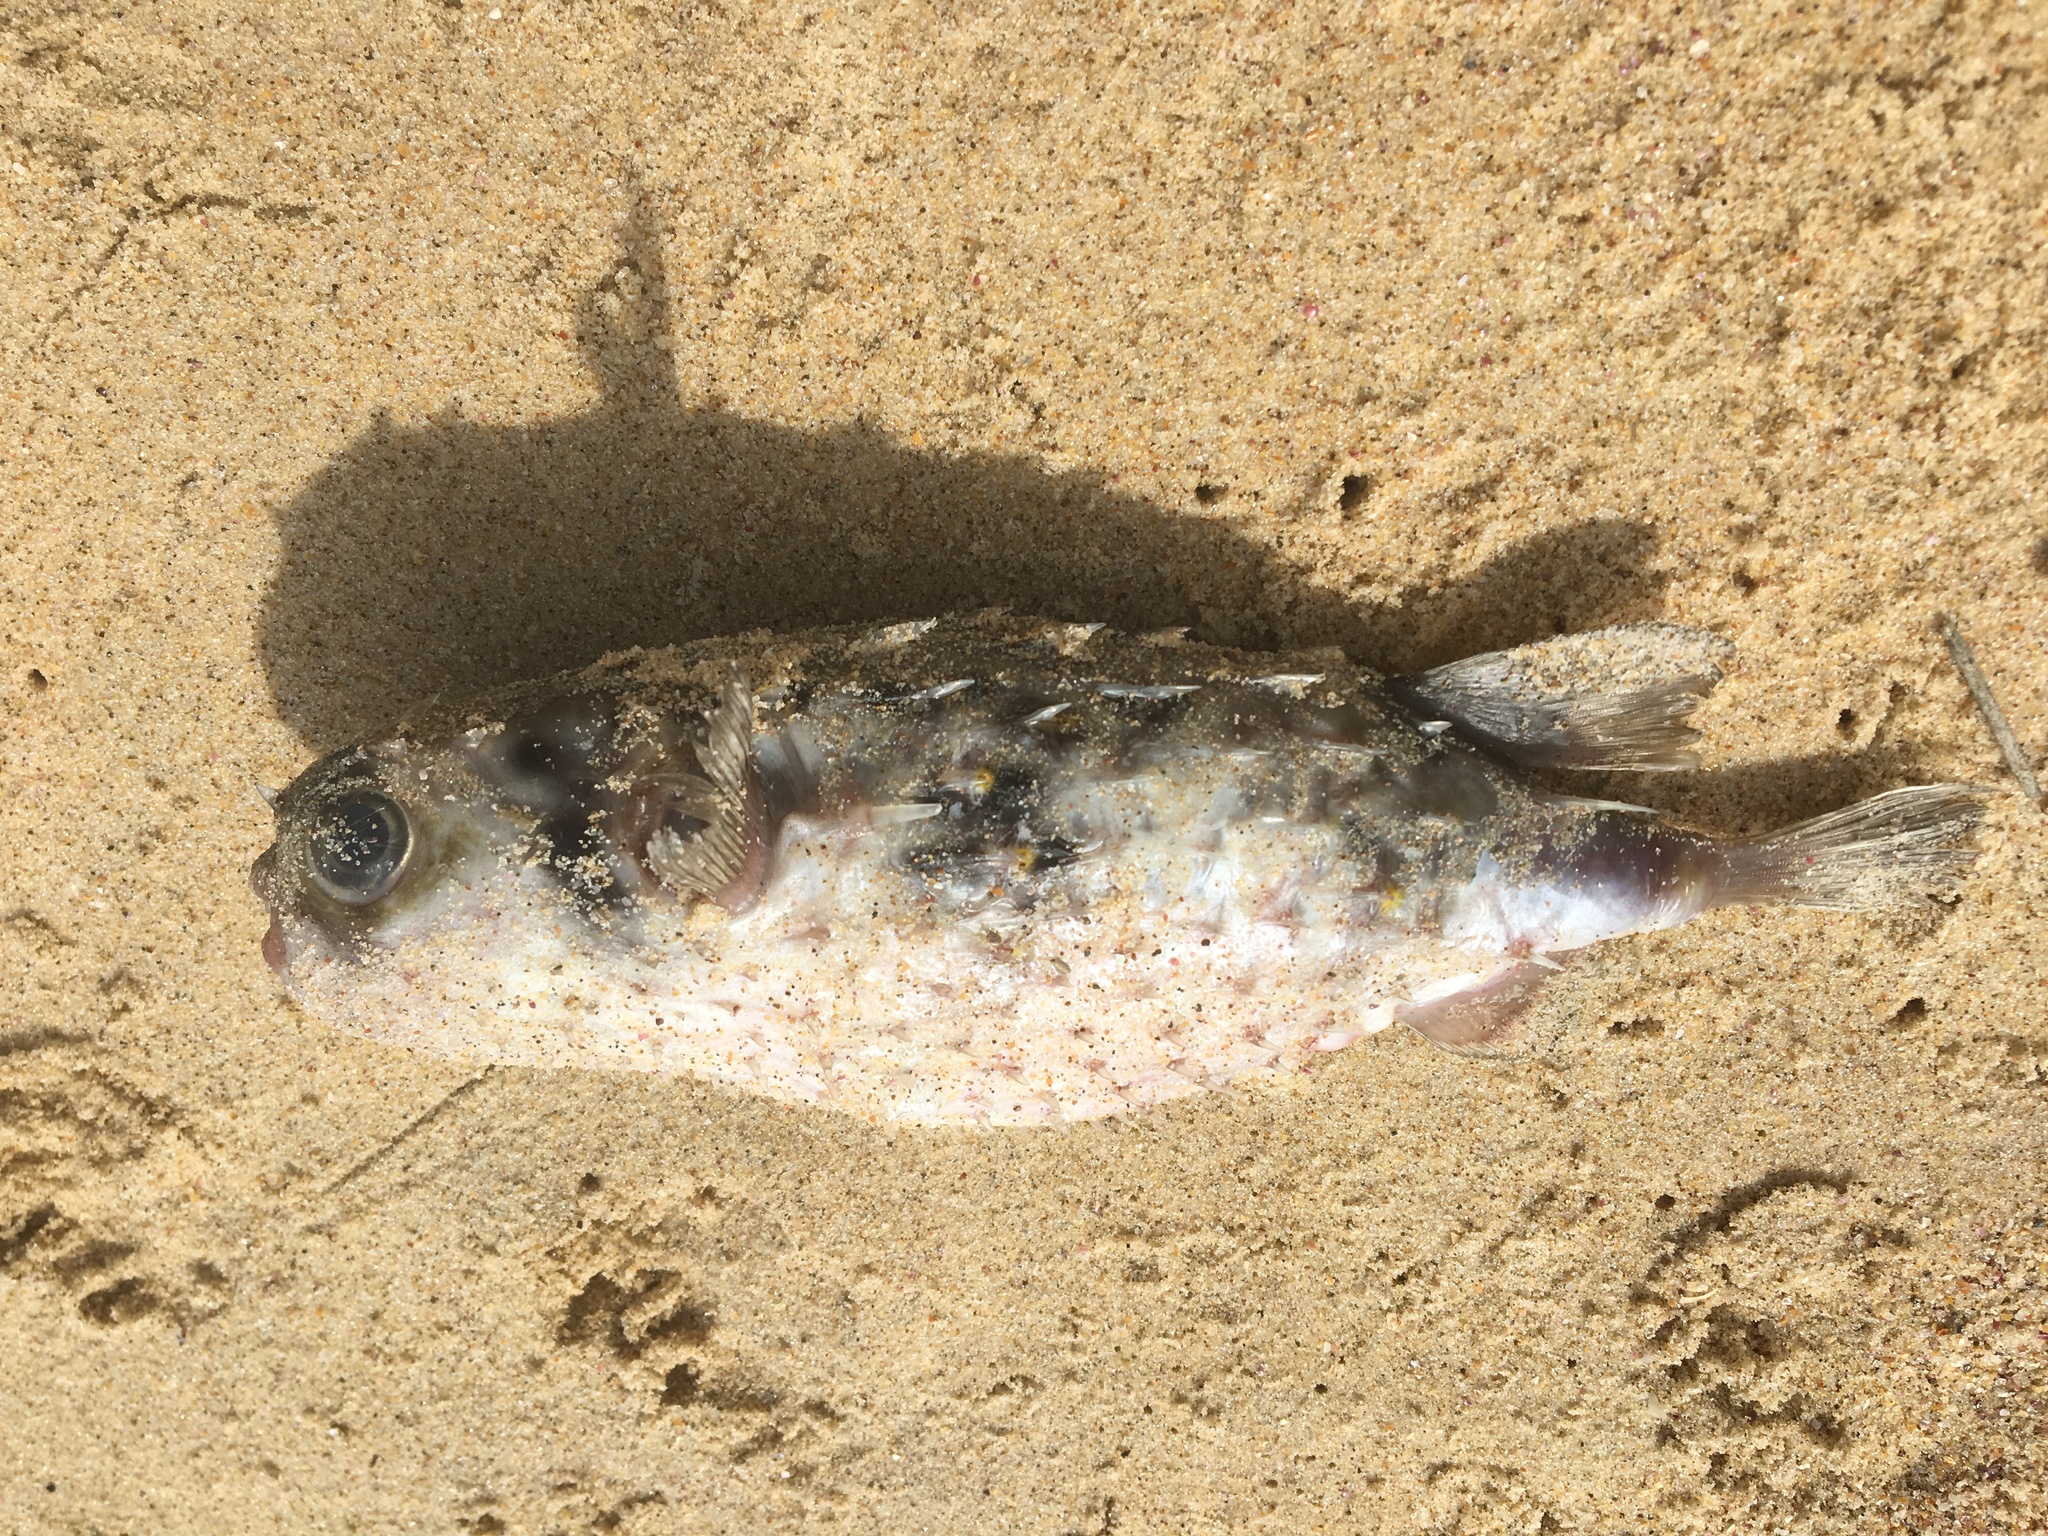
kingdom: Animalia
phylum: Chordata
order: Tetraodontiformes
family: Diodontidae
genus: Allomycterus
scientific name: Allomycterus pilatus
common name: No common name
